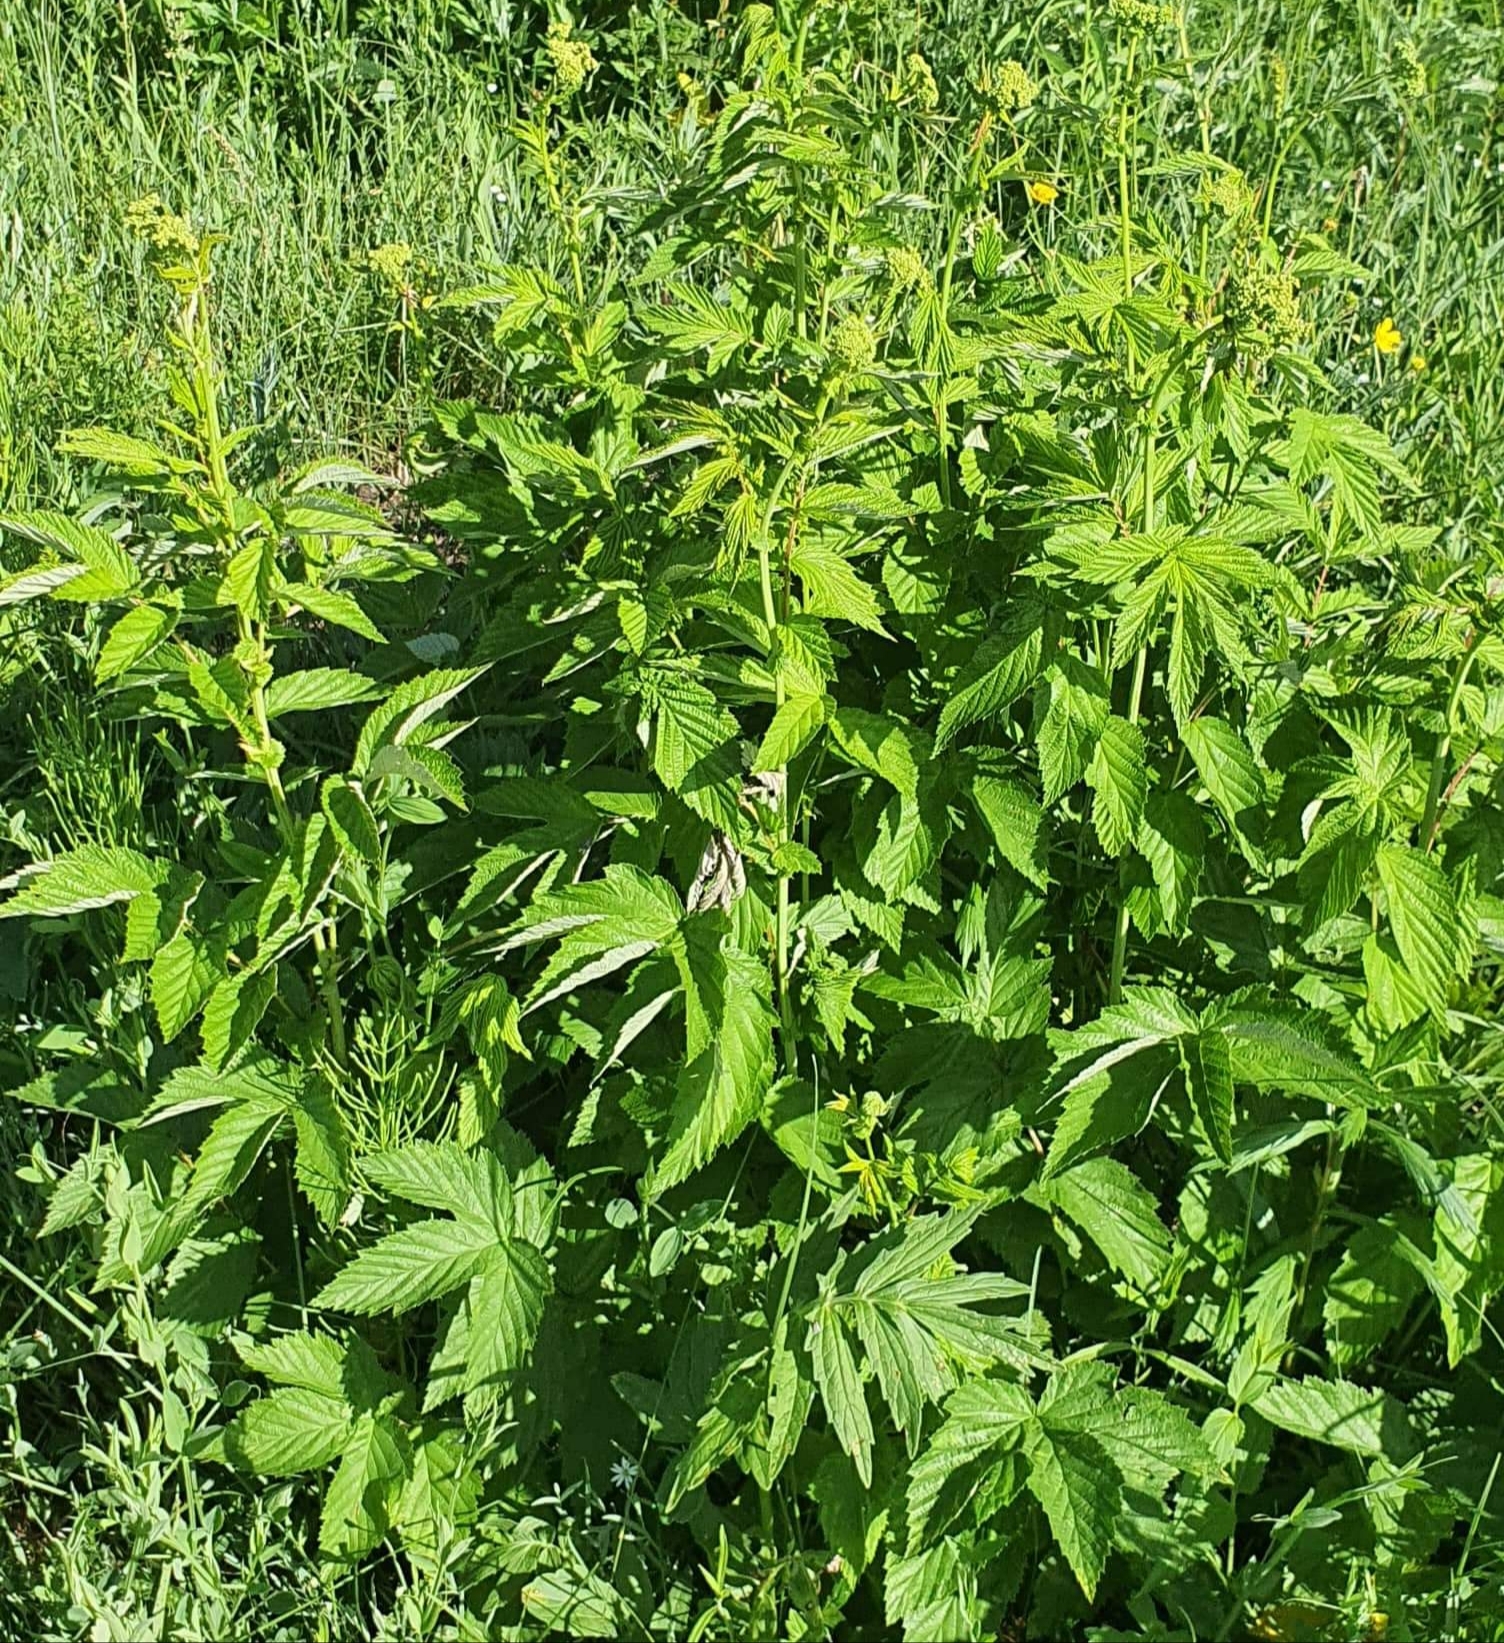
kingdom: Plantae
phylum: Tracheophyta
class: Magnoliopsida
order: Rosales
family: Rosaceae
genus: Filipendula
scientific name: Filipendula ulmaria
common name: Meadowsweet
